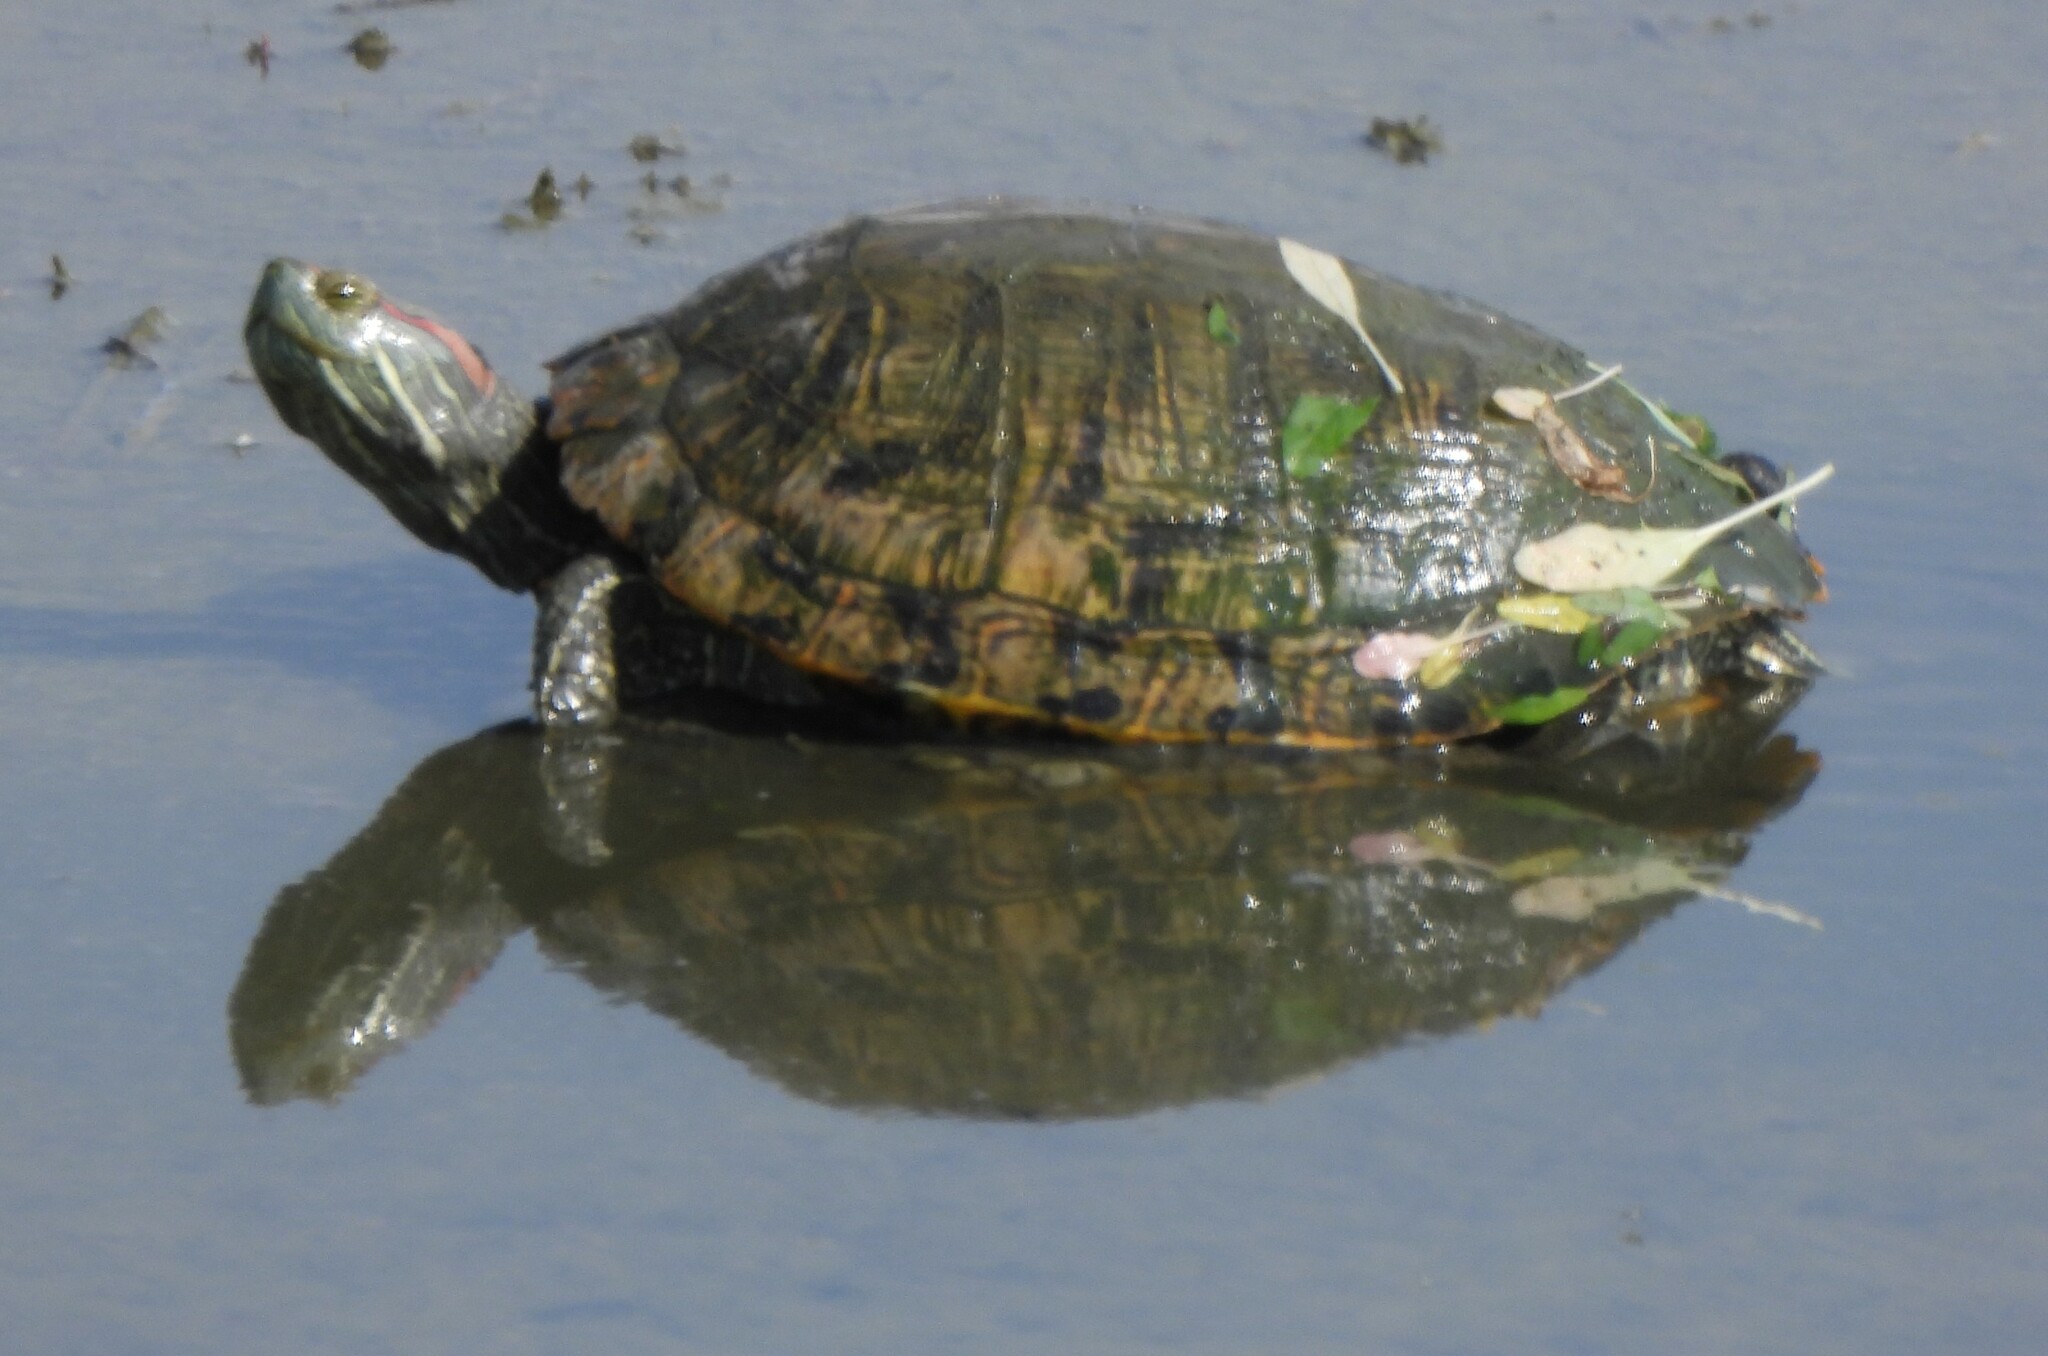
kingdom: Animalia
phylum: Chordata
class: Testudines
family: Emydidae
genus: Trachemys
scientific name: Trachemys scripta
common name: Slider
